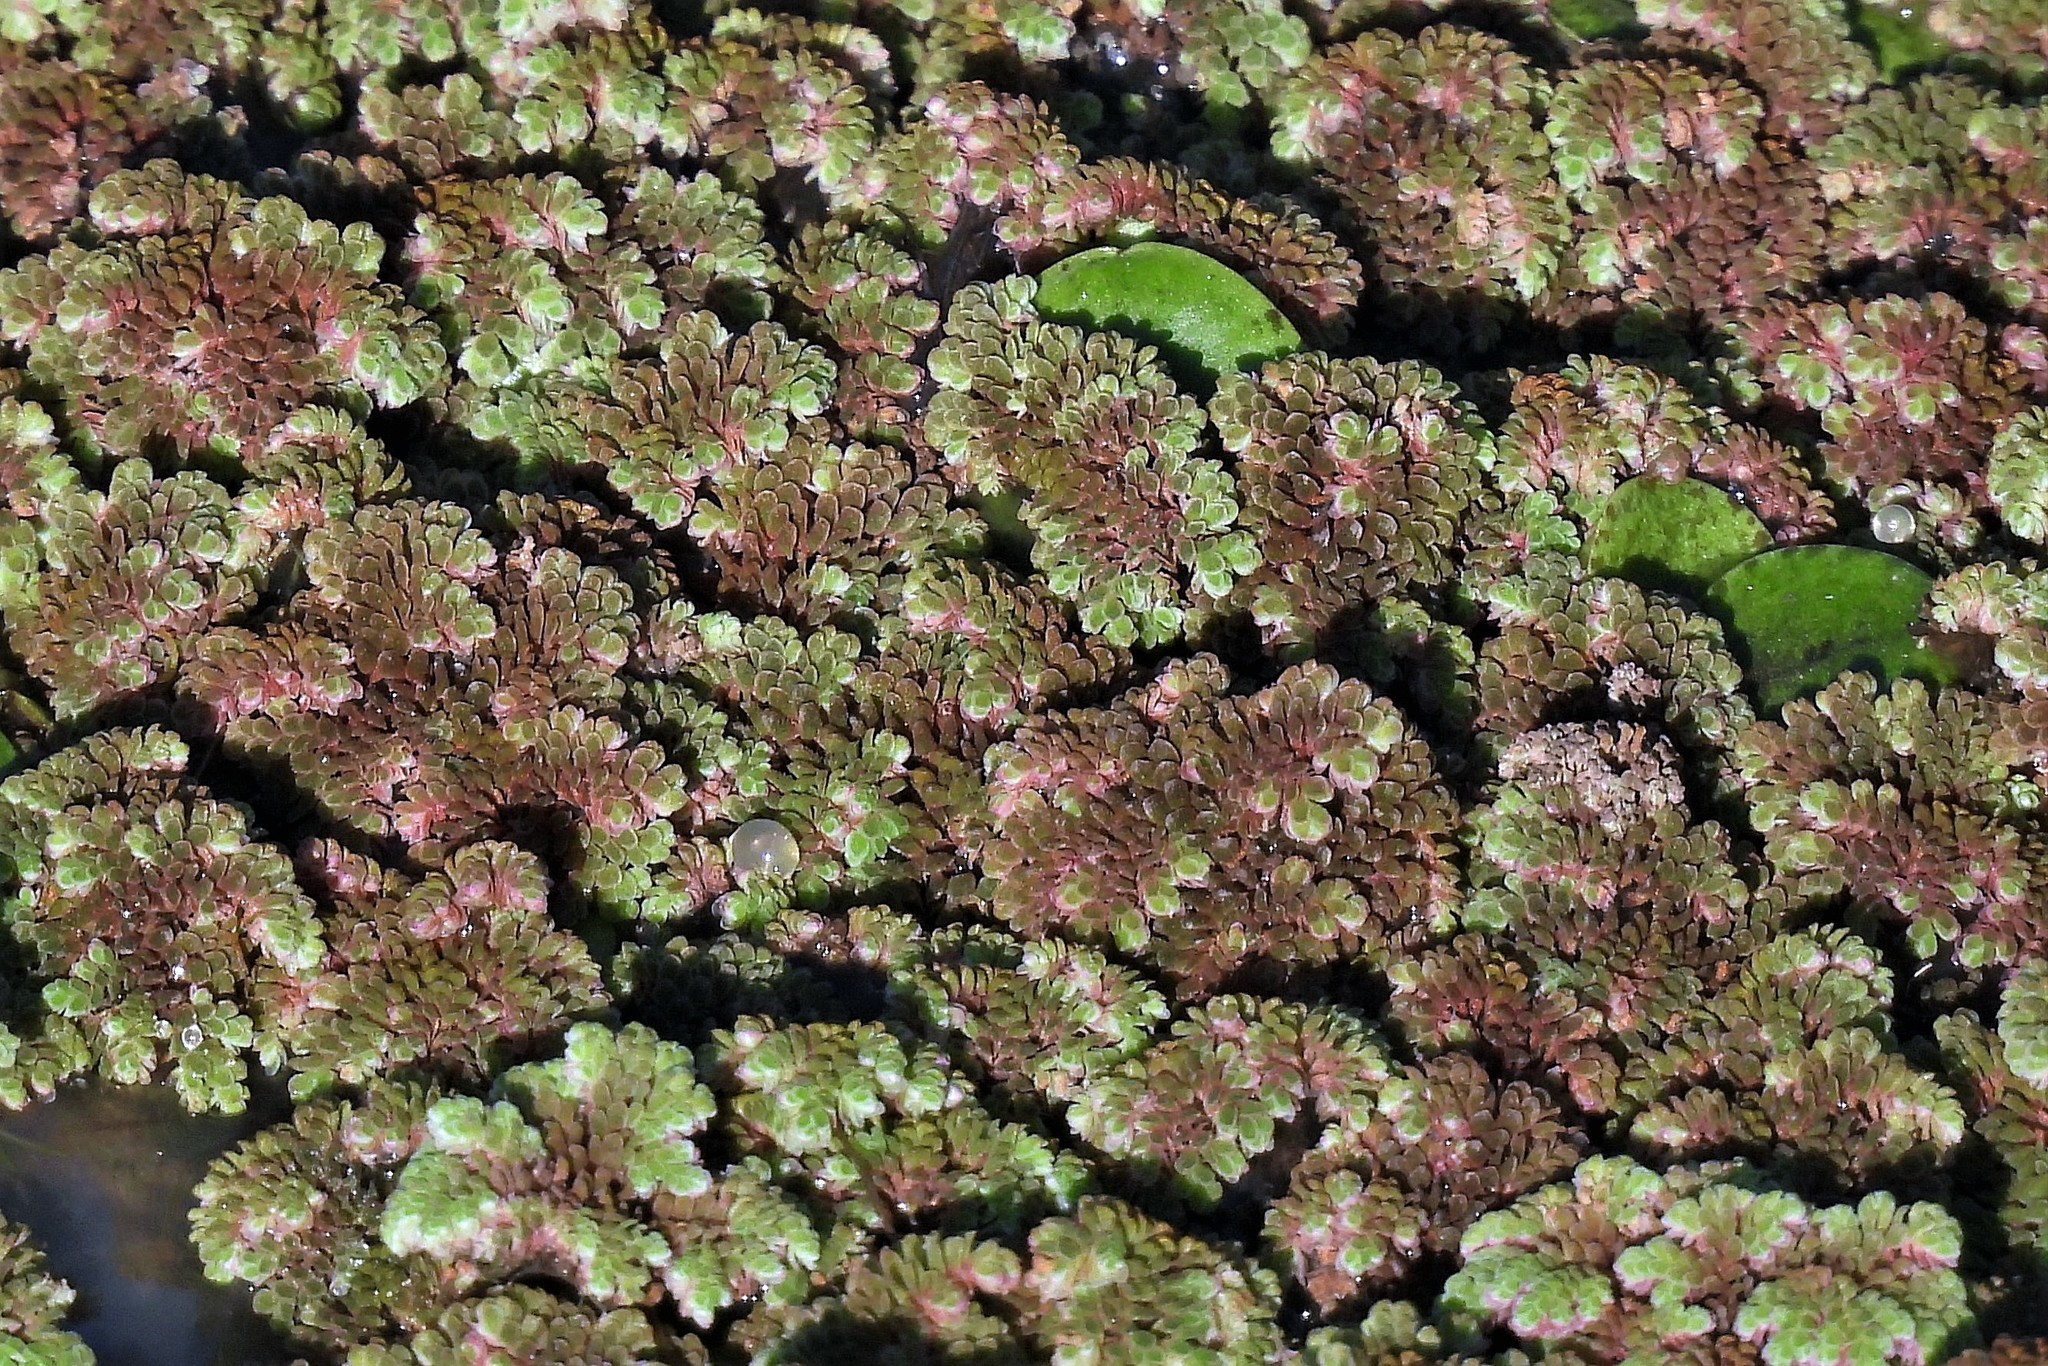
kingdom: Plantae
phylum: Tracheophyta
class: Polypodiopsida
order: Salviniales
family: Salviniaceae
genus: Azolla
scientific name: Azolla filiculoides
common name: Water fern
